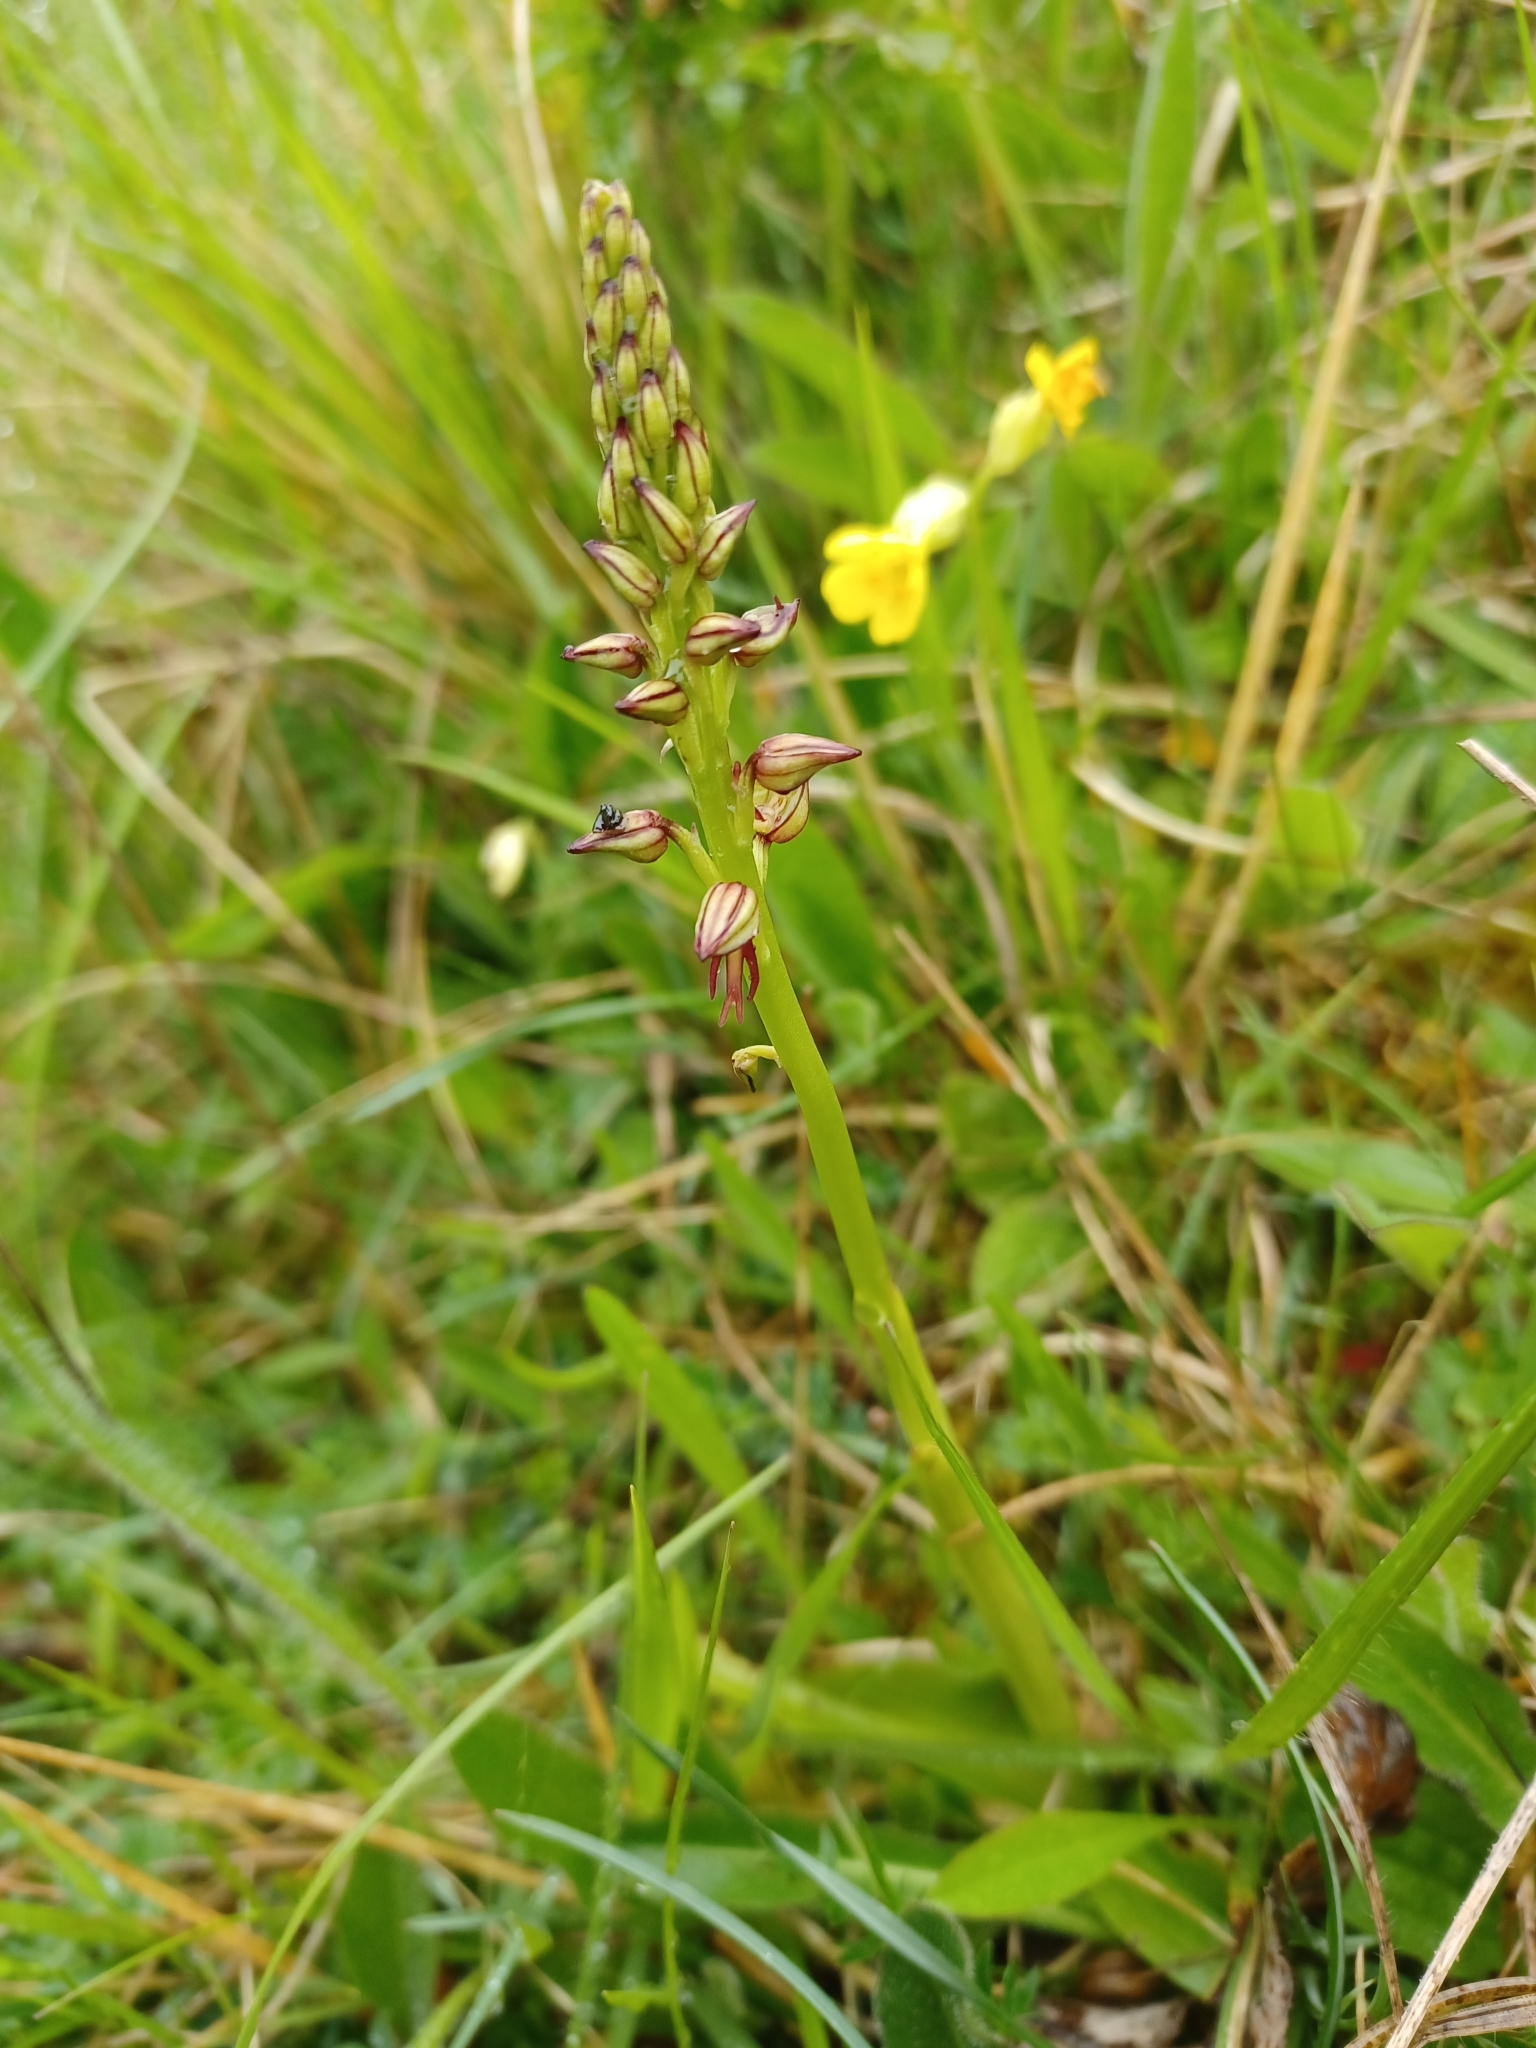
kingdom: Plantae
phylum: Tracheophyta
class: Liliopsida
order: Asparagales
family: Orchidaceae
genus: Orchis
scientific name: Orchis anthropophora
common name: Man orchid
